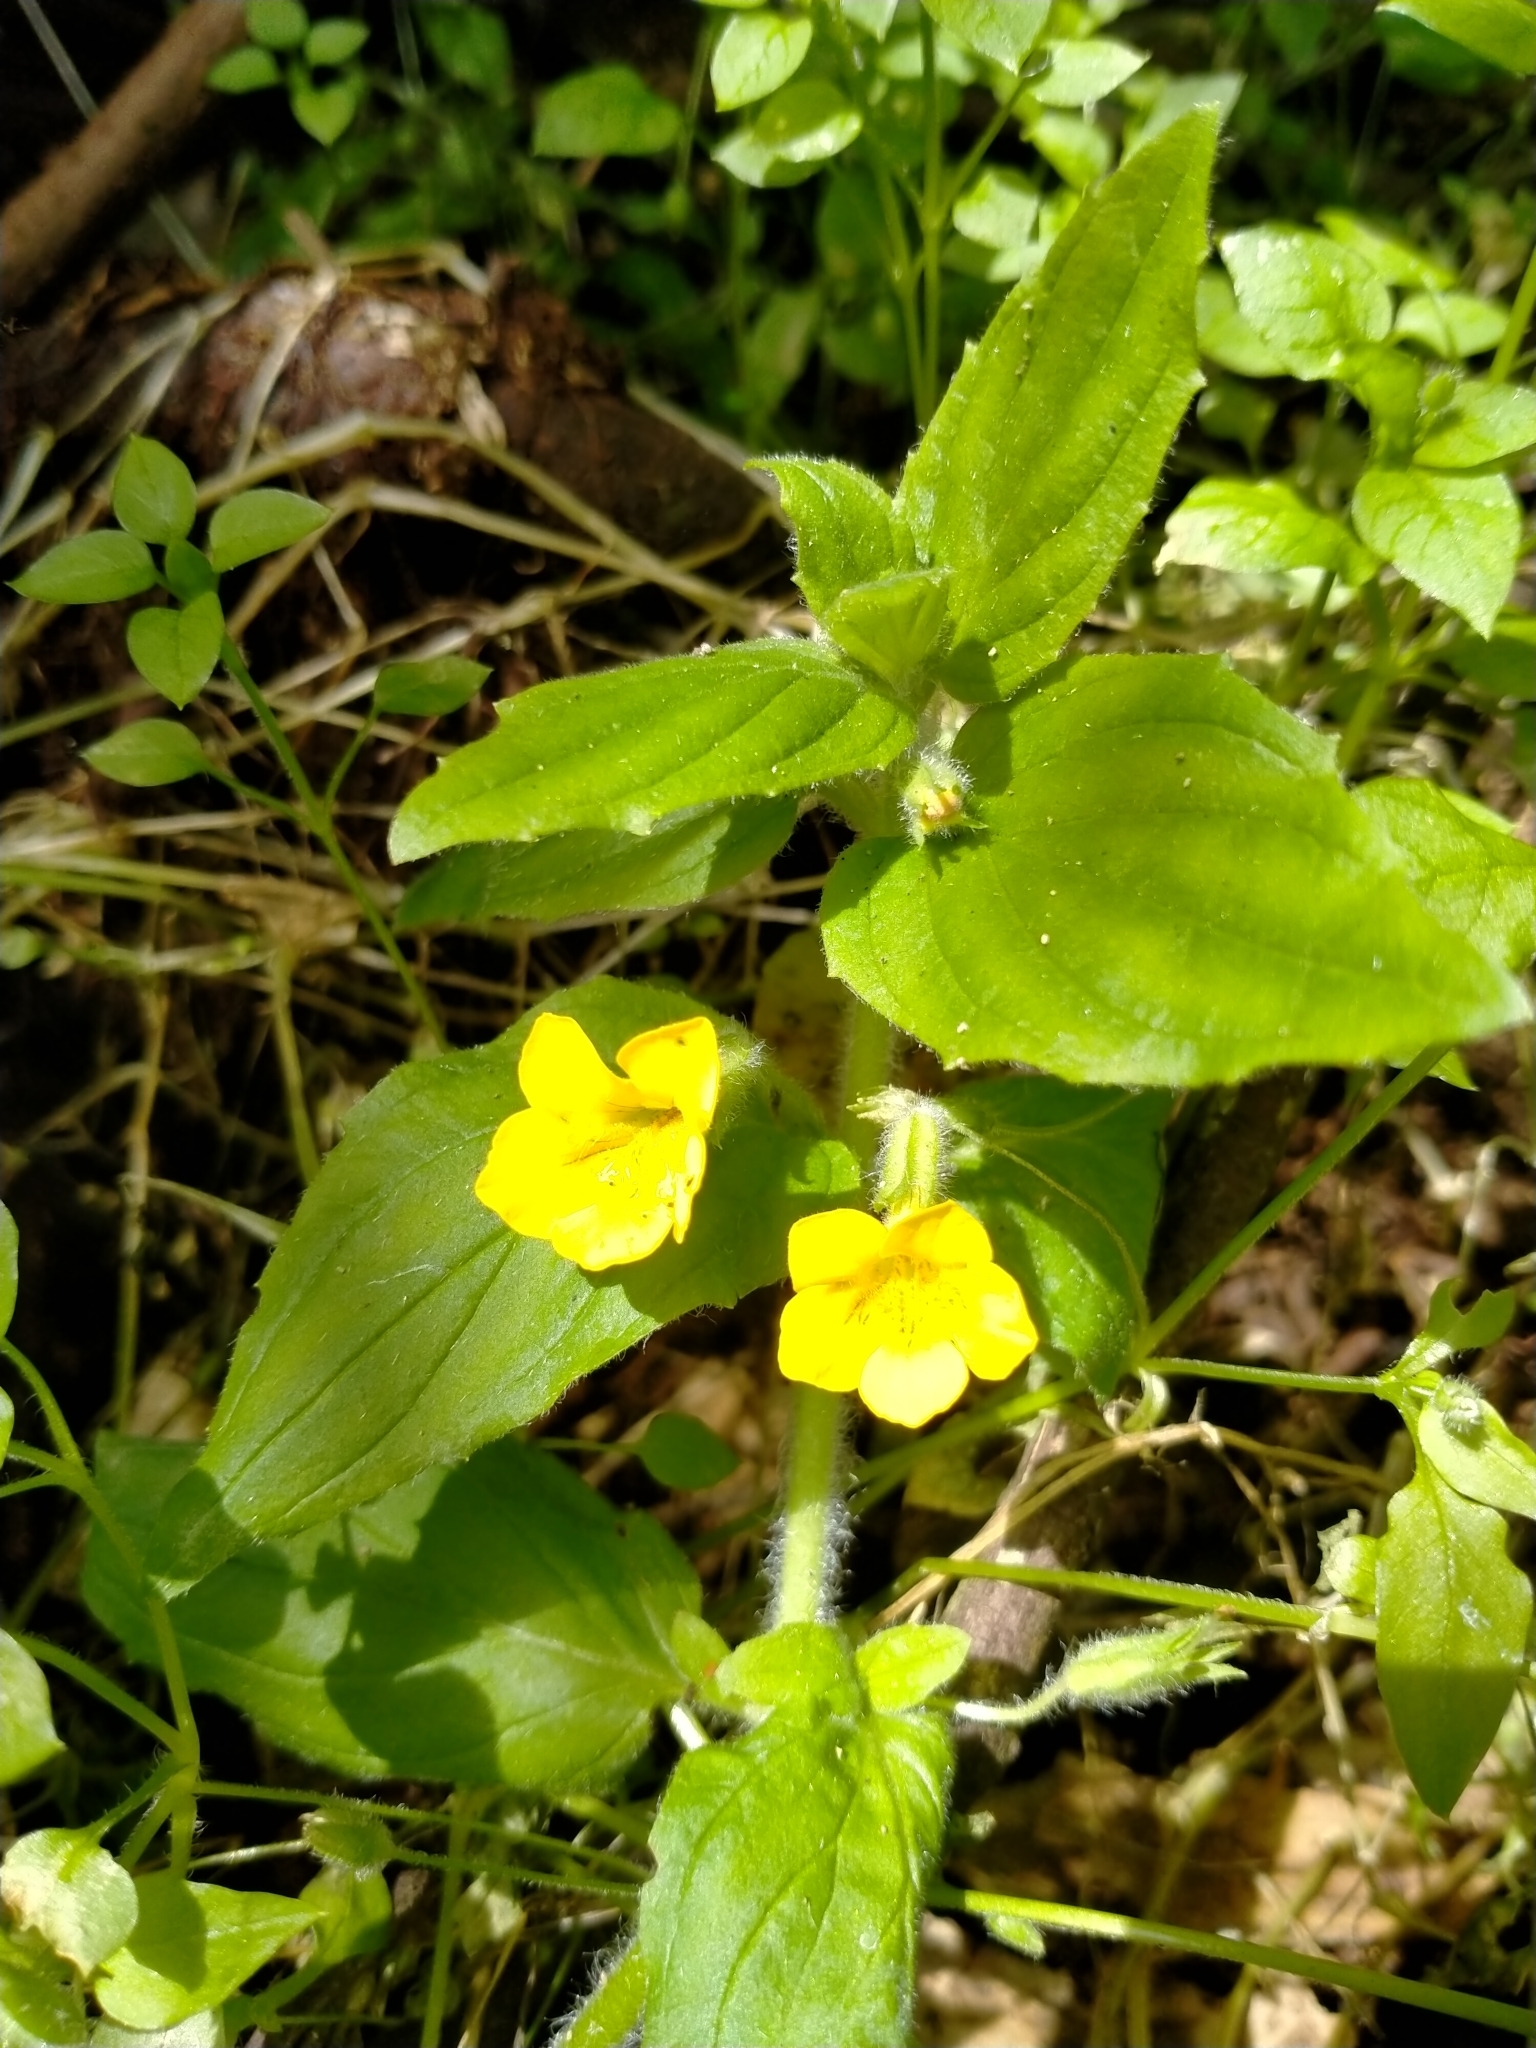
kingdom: Plantae
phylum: Tracheophyta
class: Magnoliopsida
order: Lamiales
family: Phrymaceae
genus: Erythranthe
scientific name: Erythranthe moschata
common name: Muskflower
